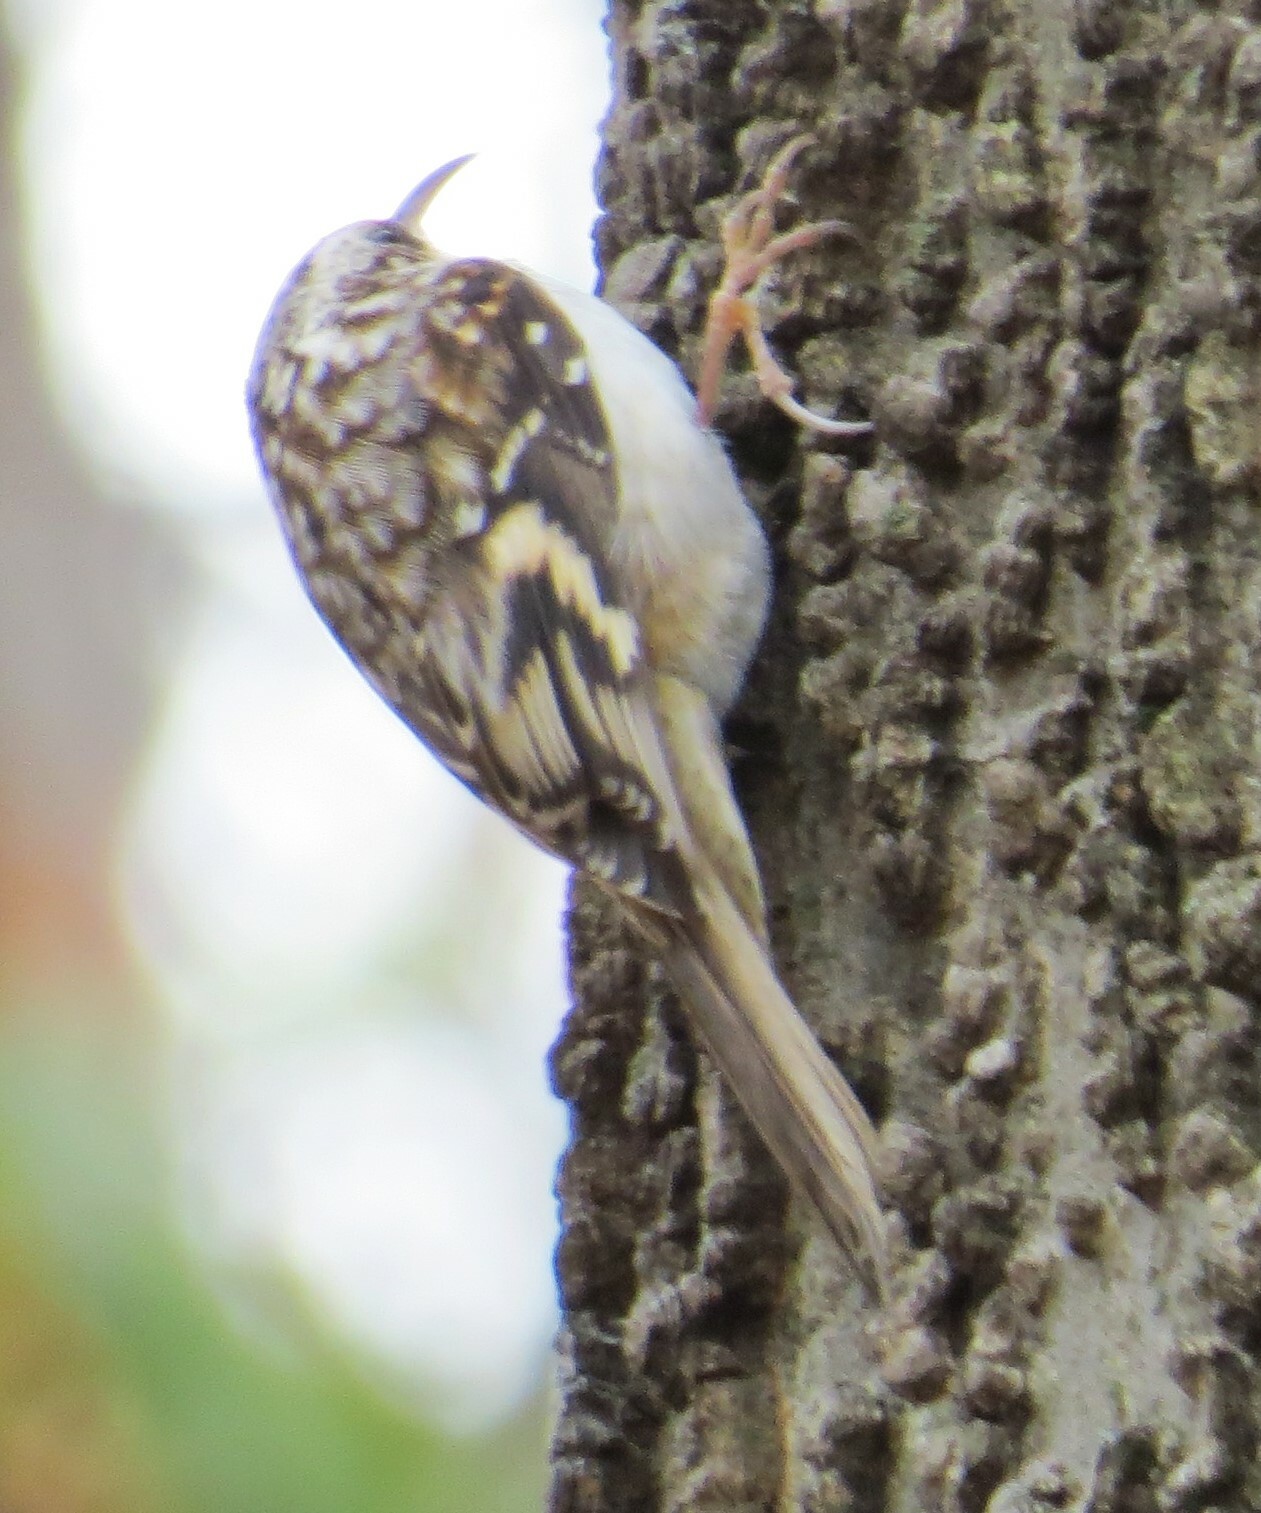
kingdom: Animalia
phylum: Chordata
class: Aves
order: Passeriformes
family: Certhiidae
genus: Certhia
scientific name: Certhia americana
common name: Brown creeper
